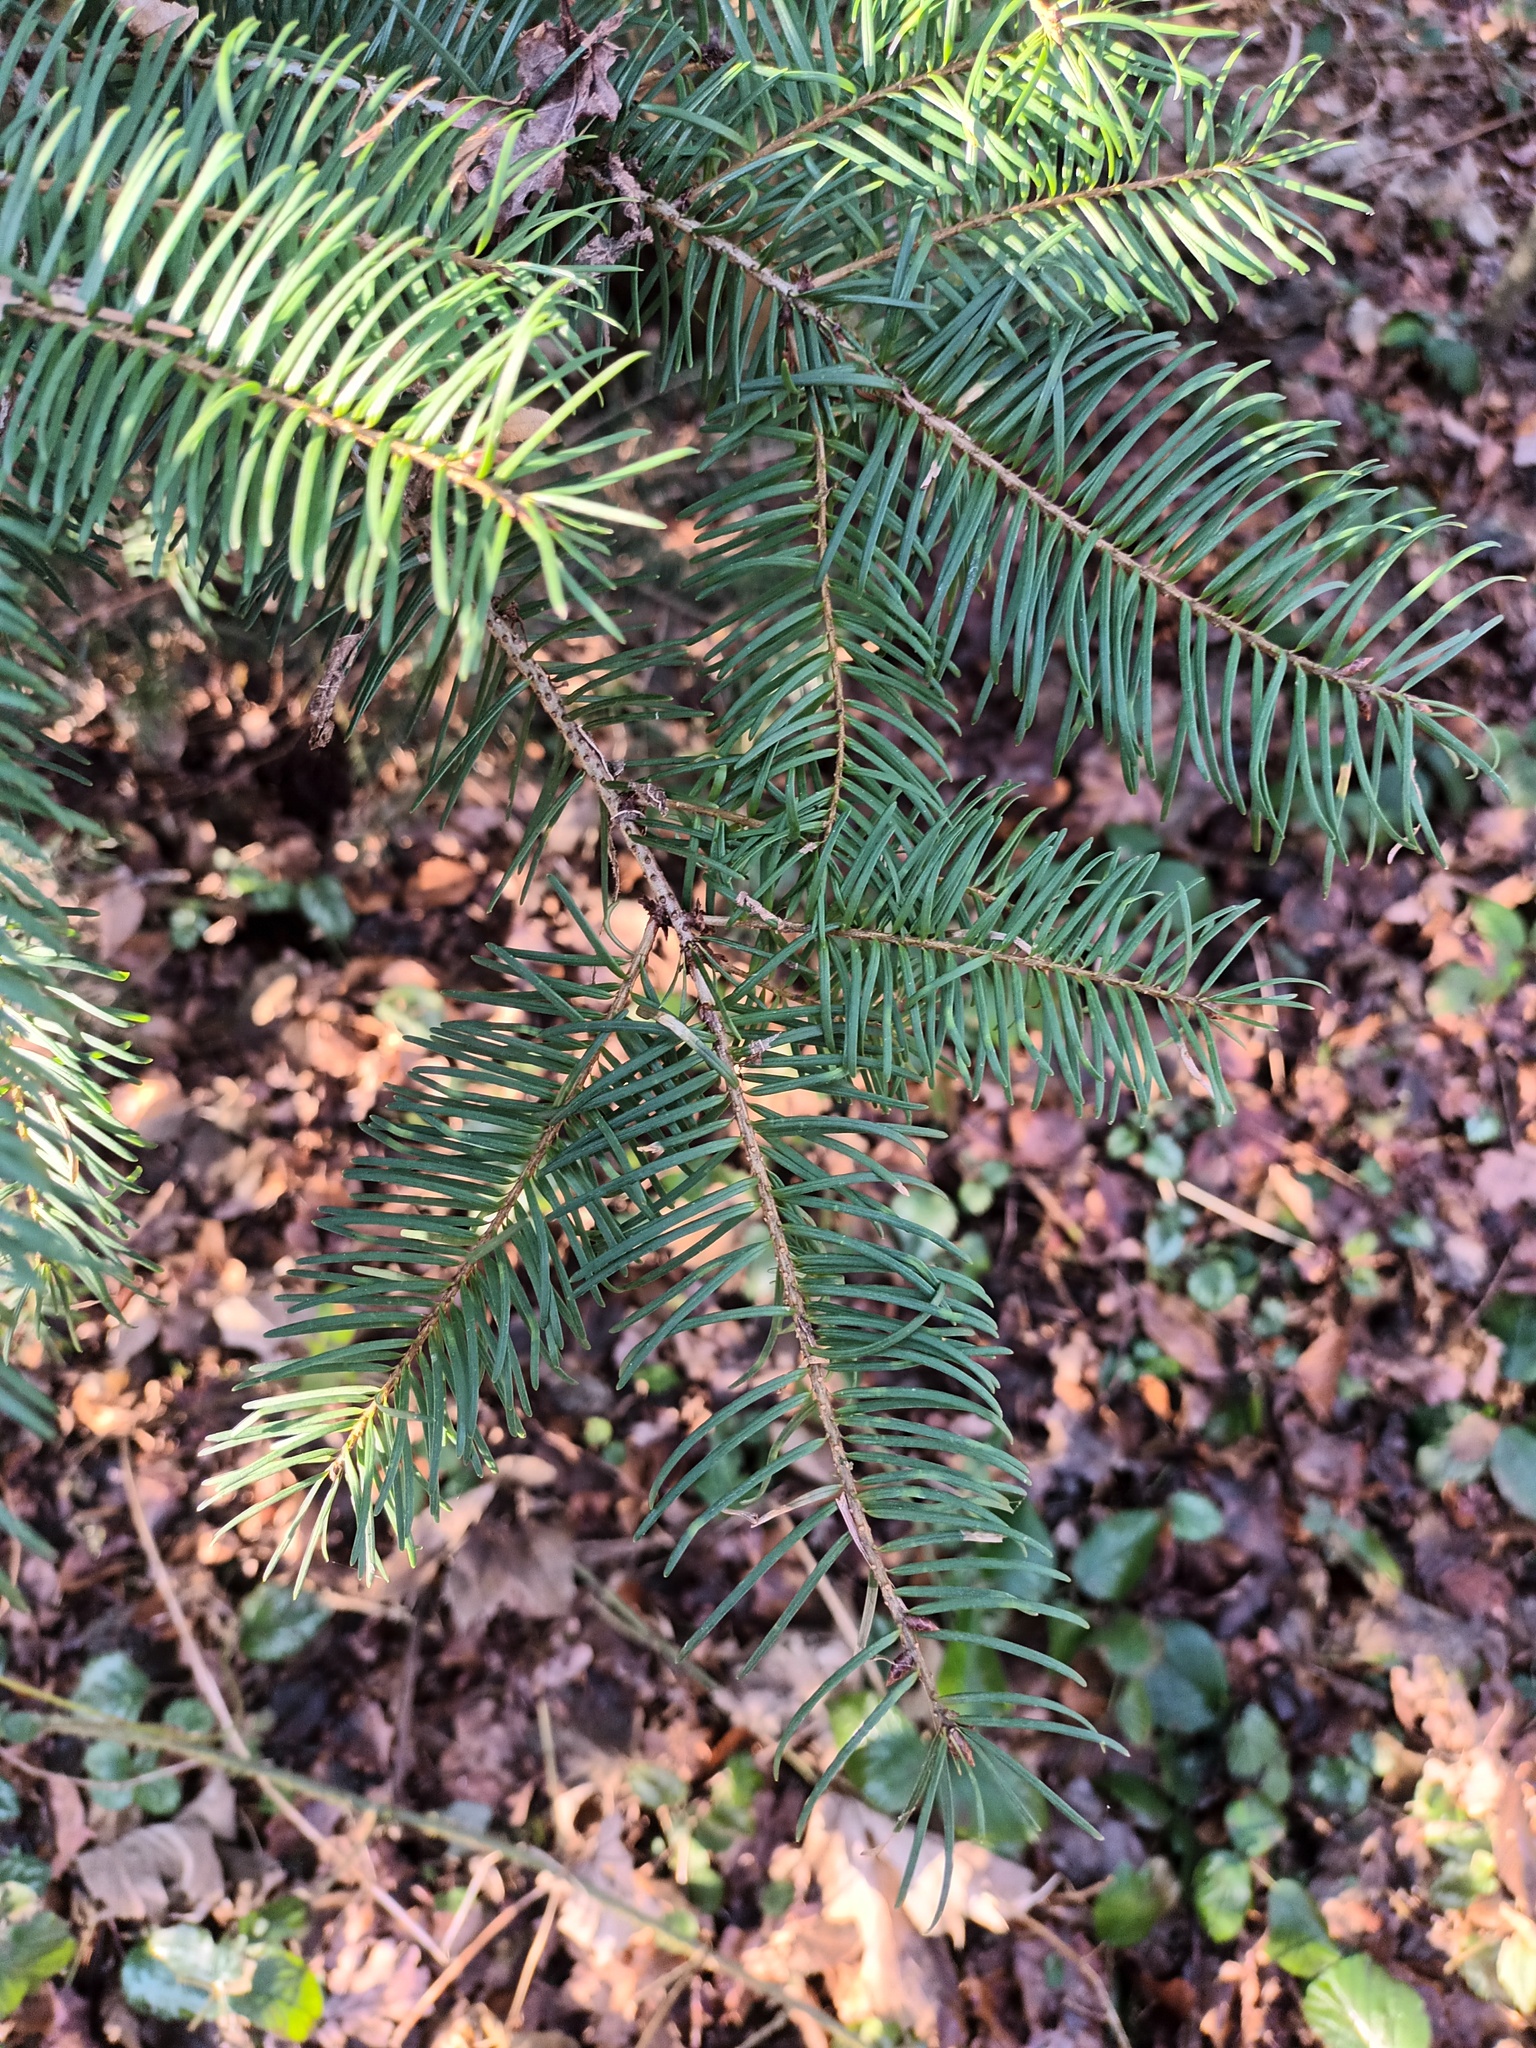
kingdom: Plantae
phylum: Tracheophyta
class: Pinopsida
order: Pinales
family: Pinaceae
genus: Pseudotsuga
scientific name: Pseudotsuga menziesii
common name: Douglas fir
